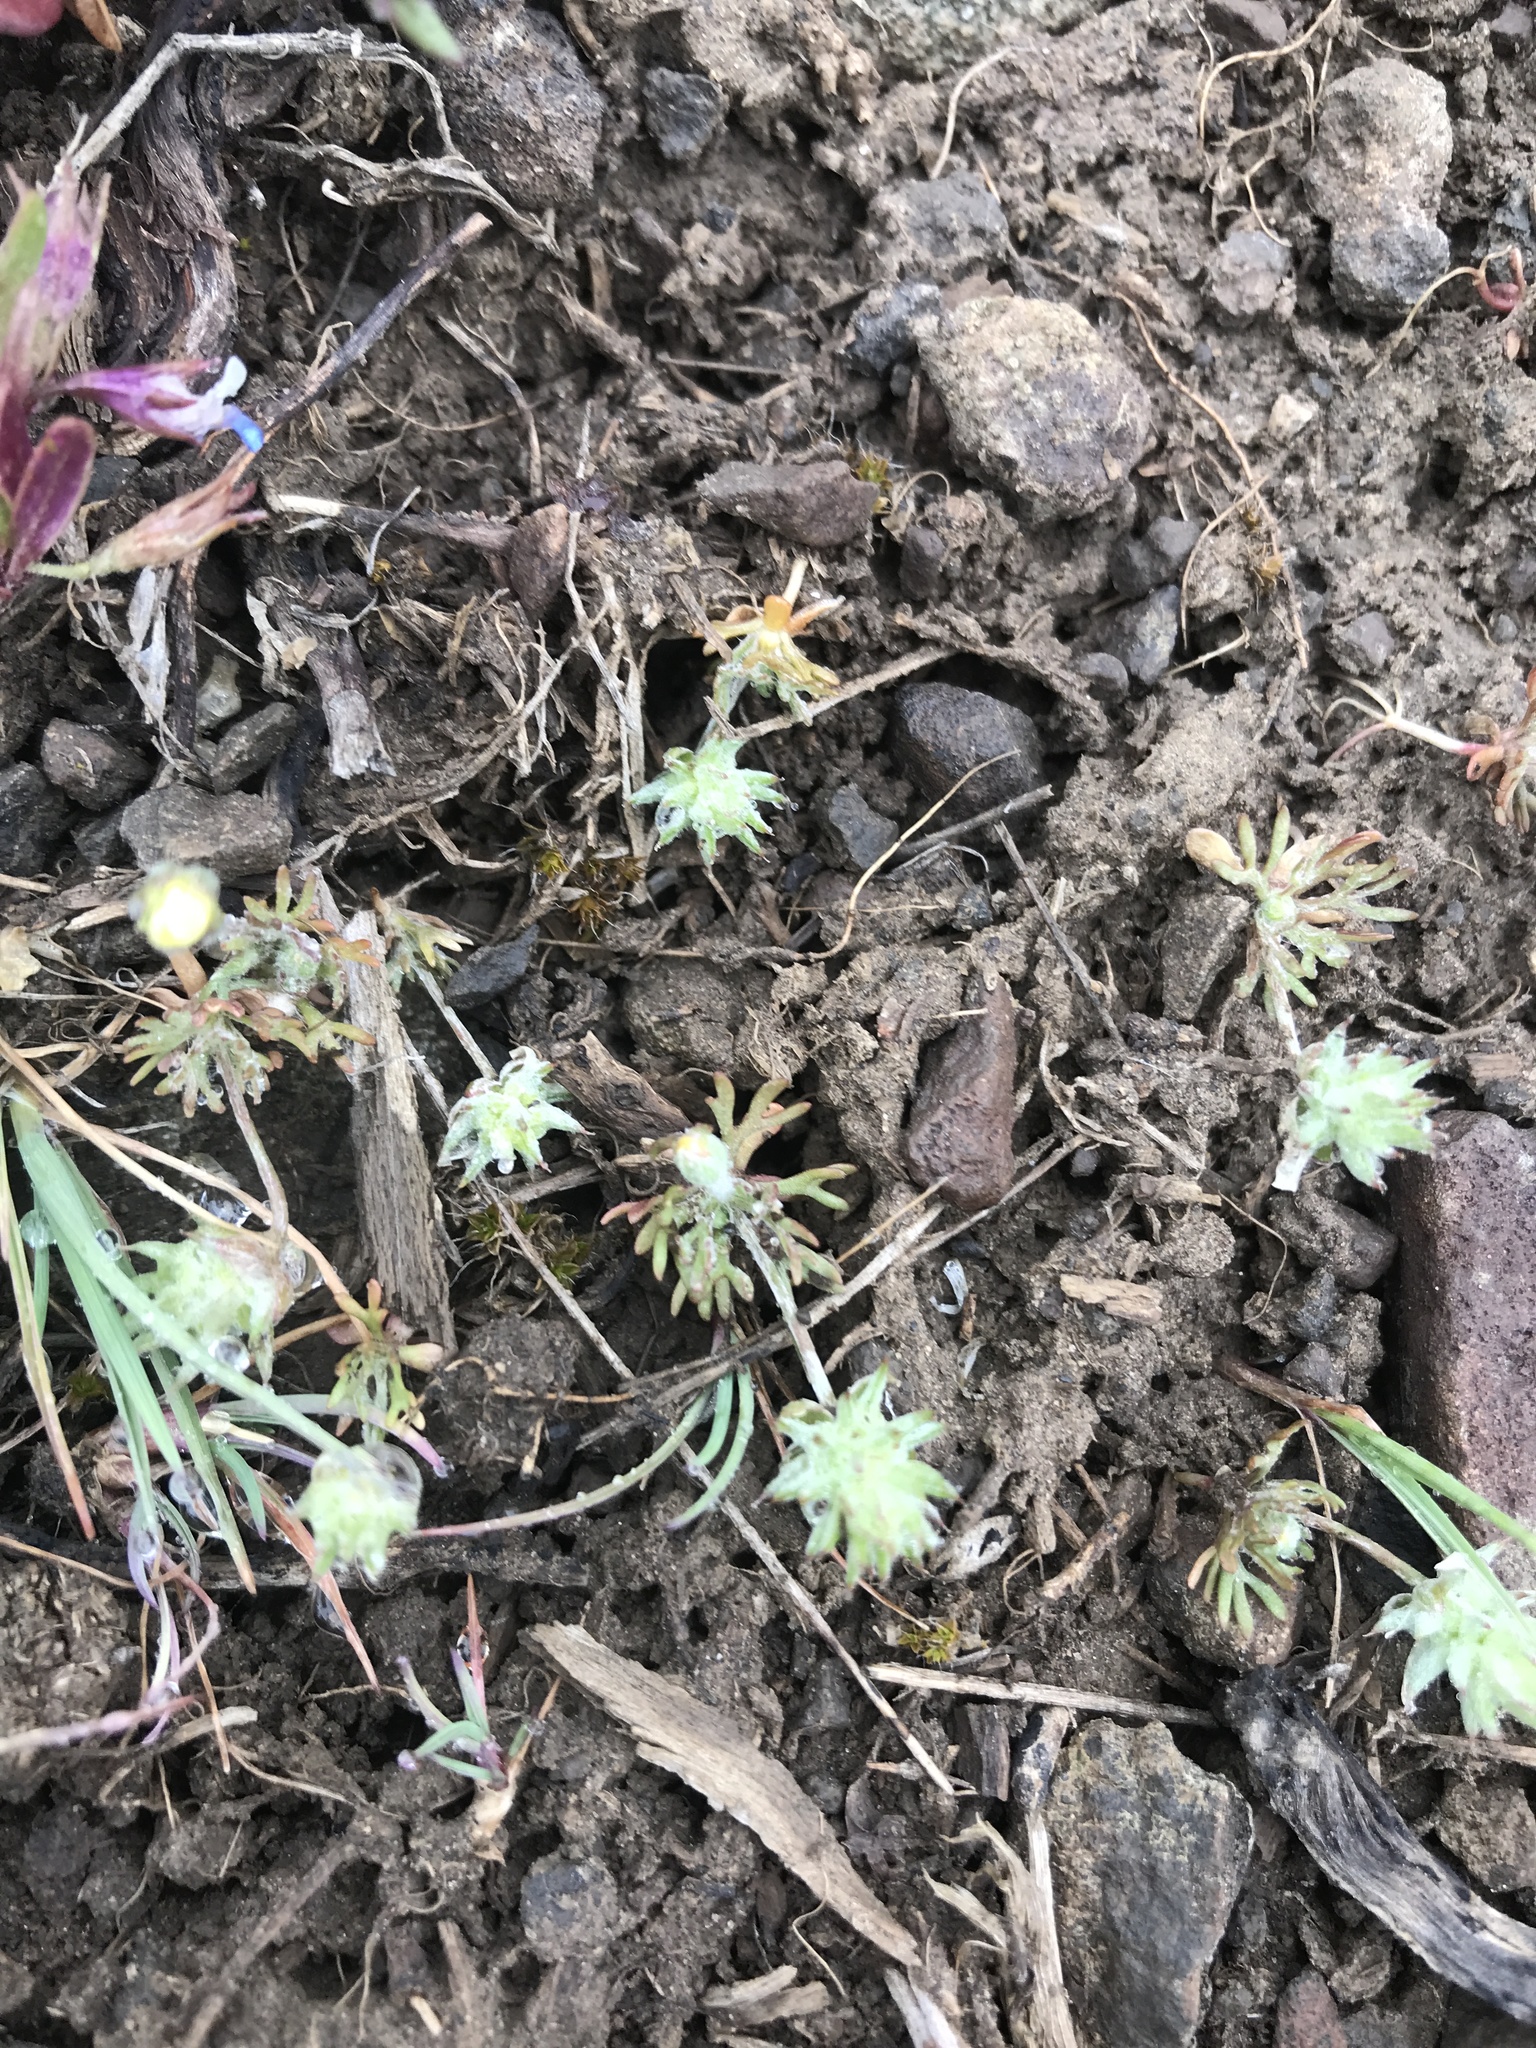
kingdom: Plantae
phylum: Tracheophyta
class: Magnoliopsida
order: Ranunculales
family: Ranunculaceae
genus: Ceratocephala
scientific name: Ceratocephala orthoceras
